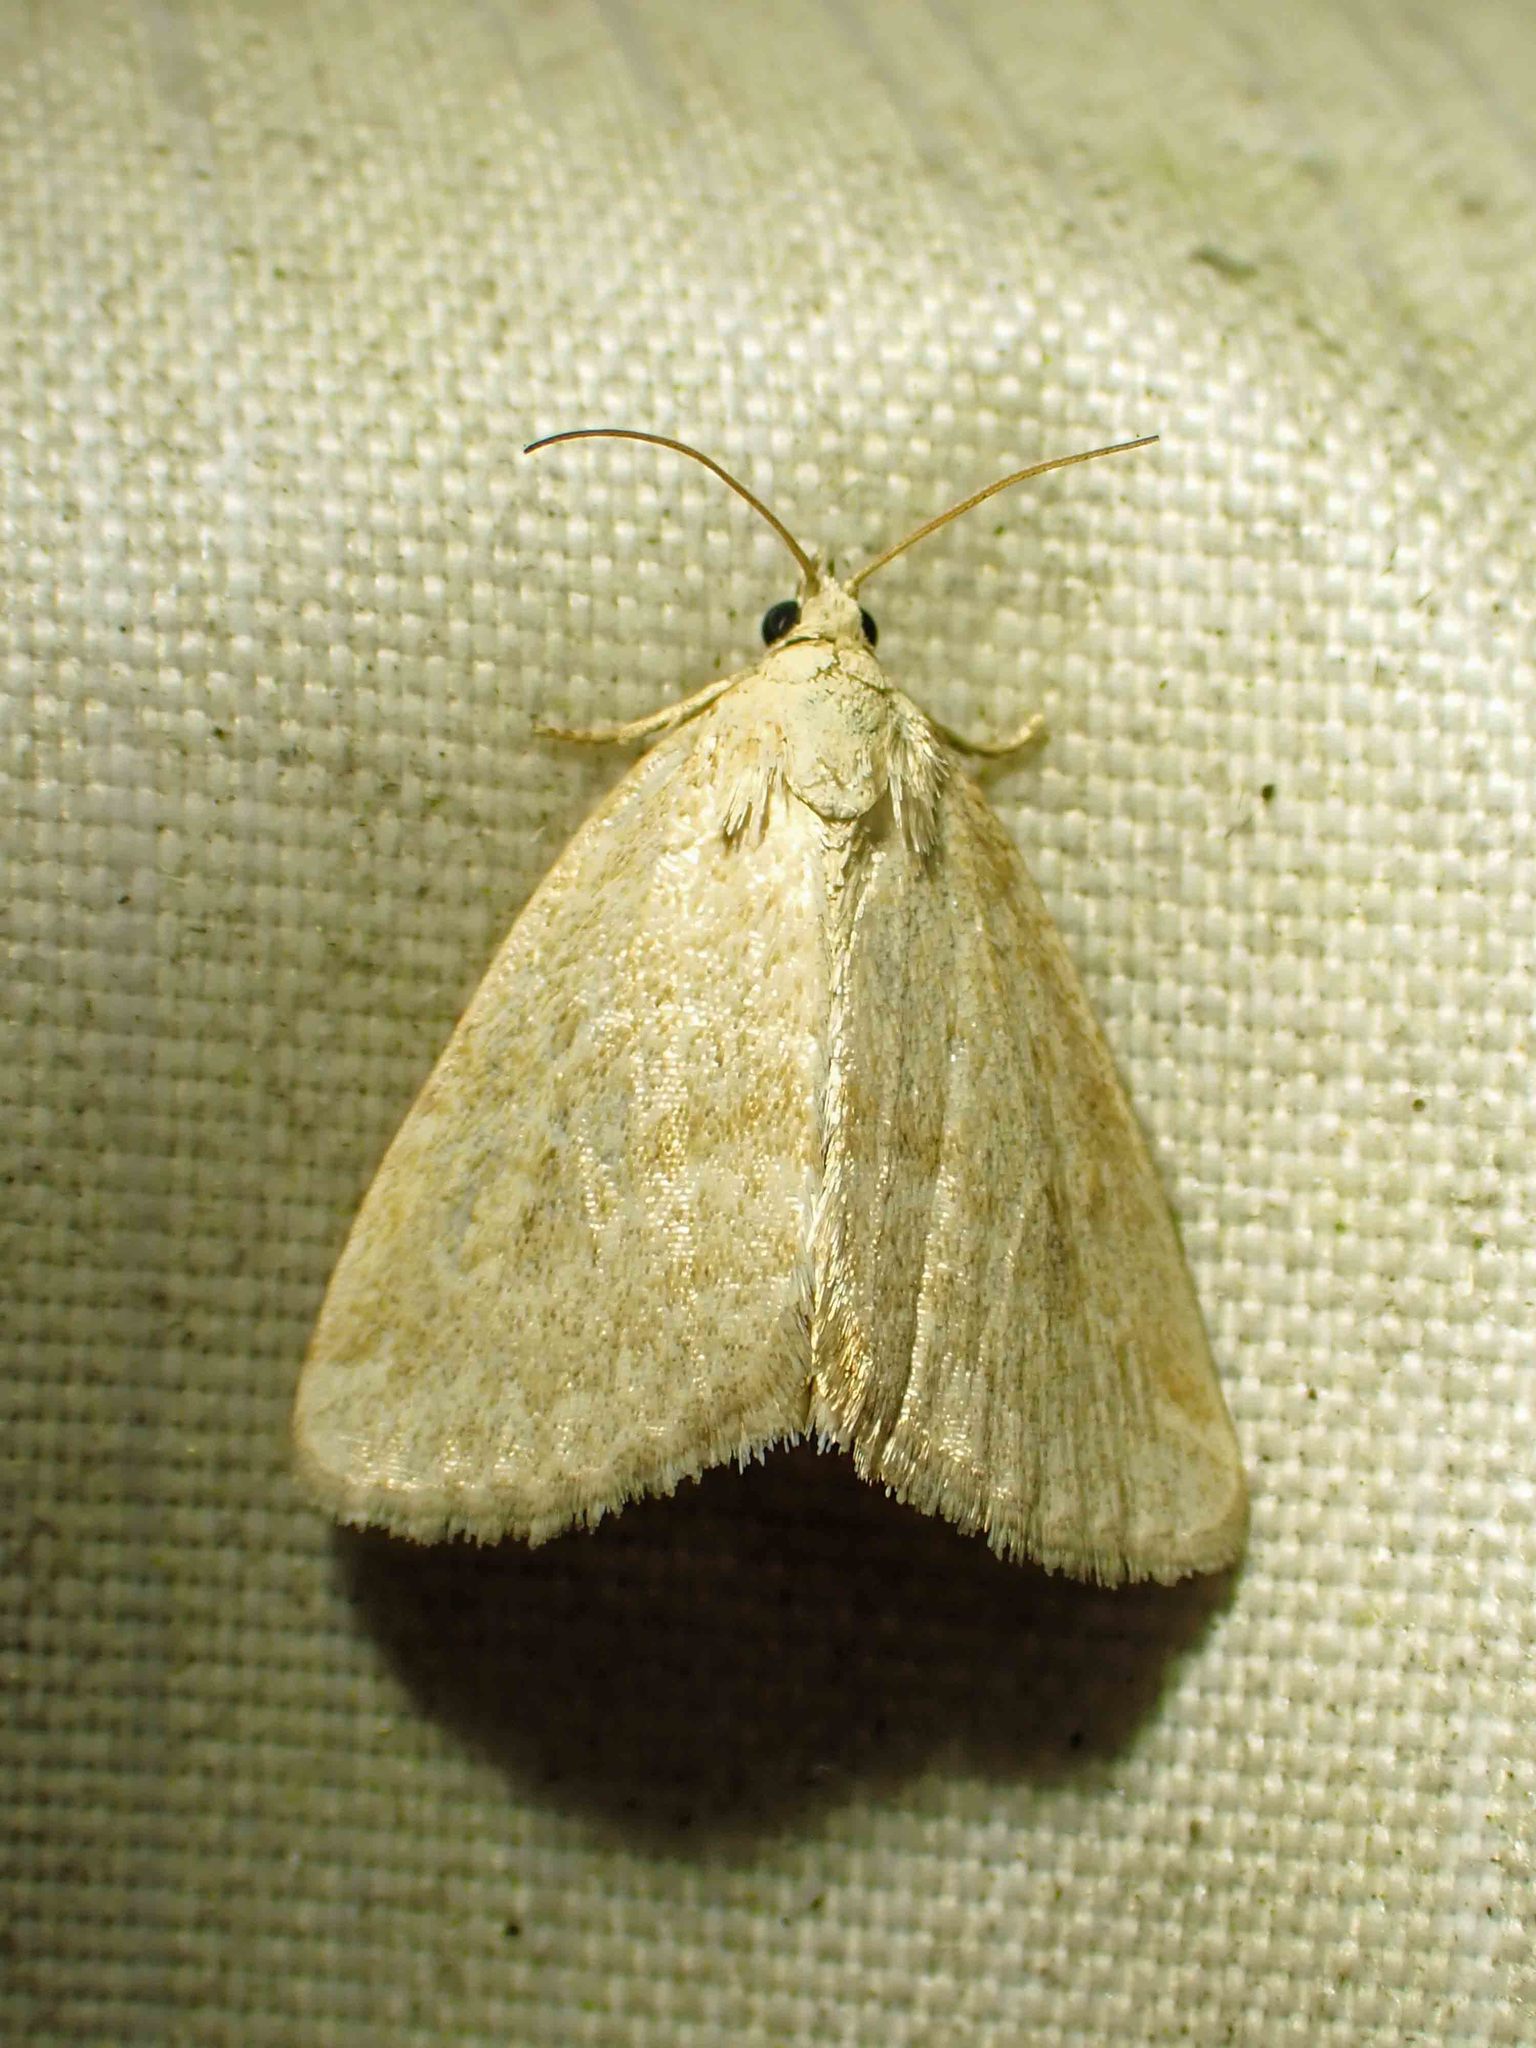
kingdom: Animalia
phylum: Arthropoda
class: Insecta
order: Lepidoptera
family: Noctuidae
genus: Protodeltote
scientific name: Protodeltote albidula
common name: Pale glyph
